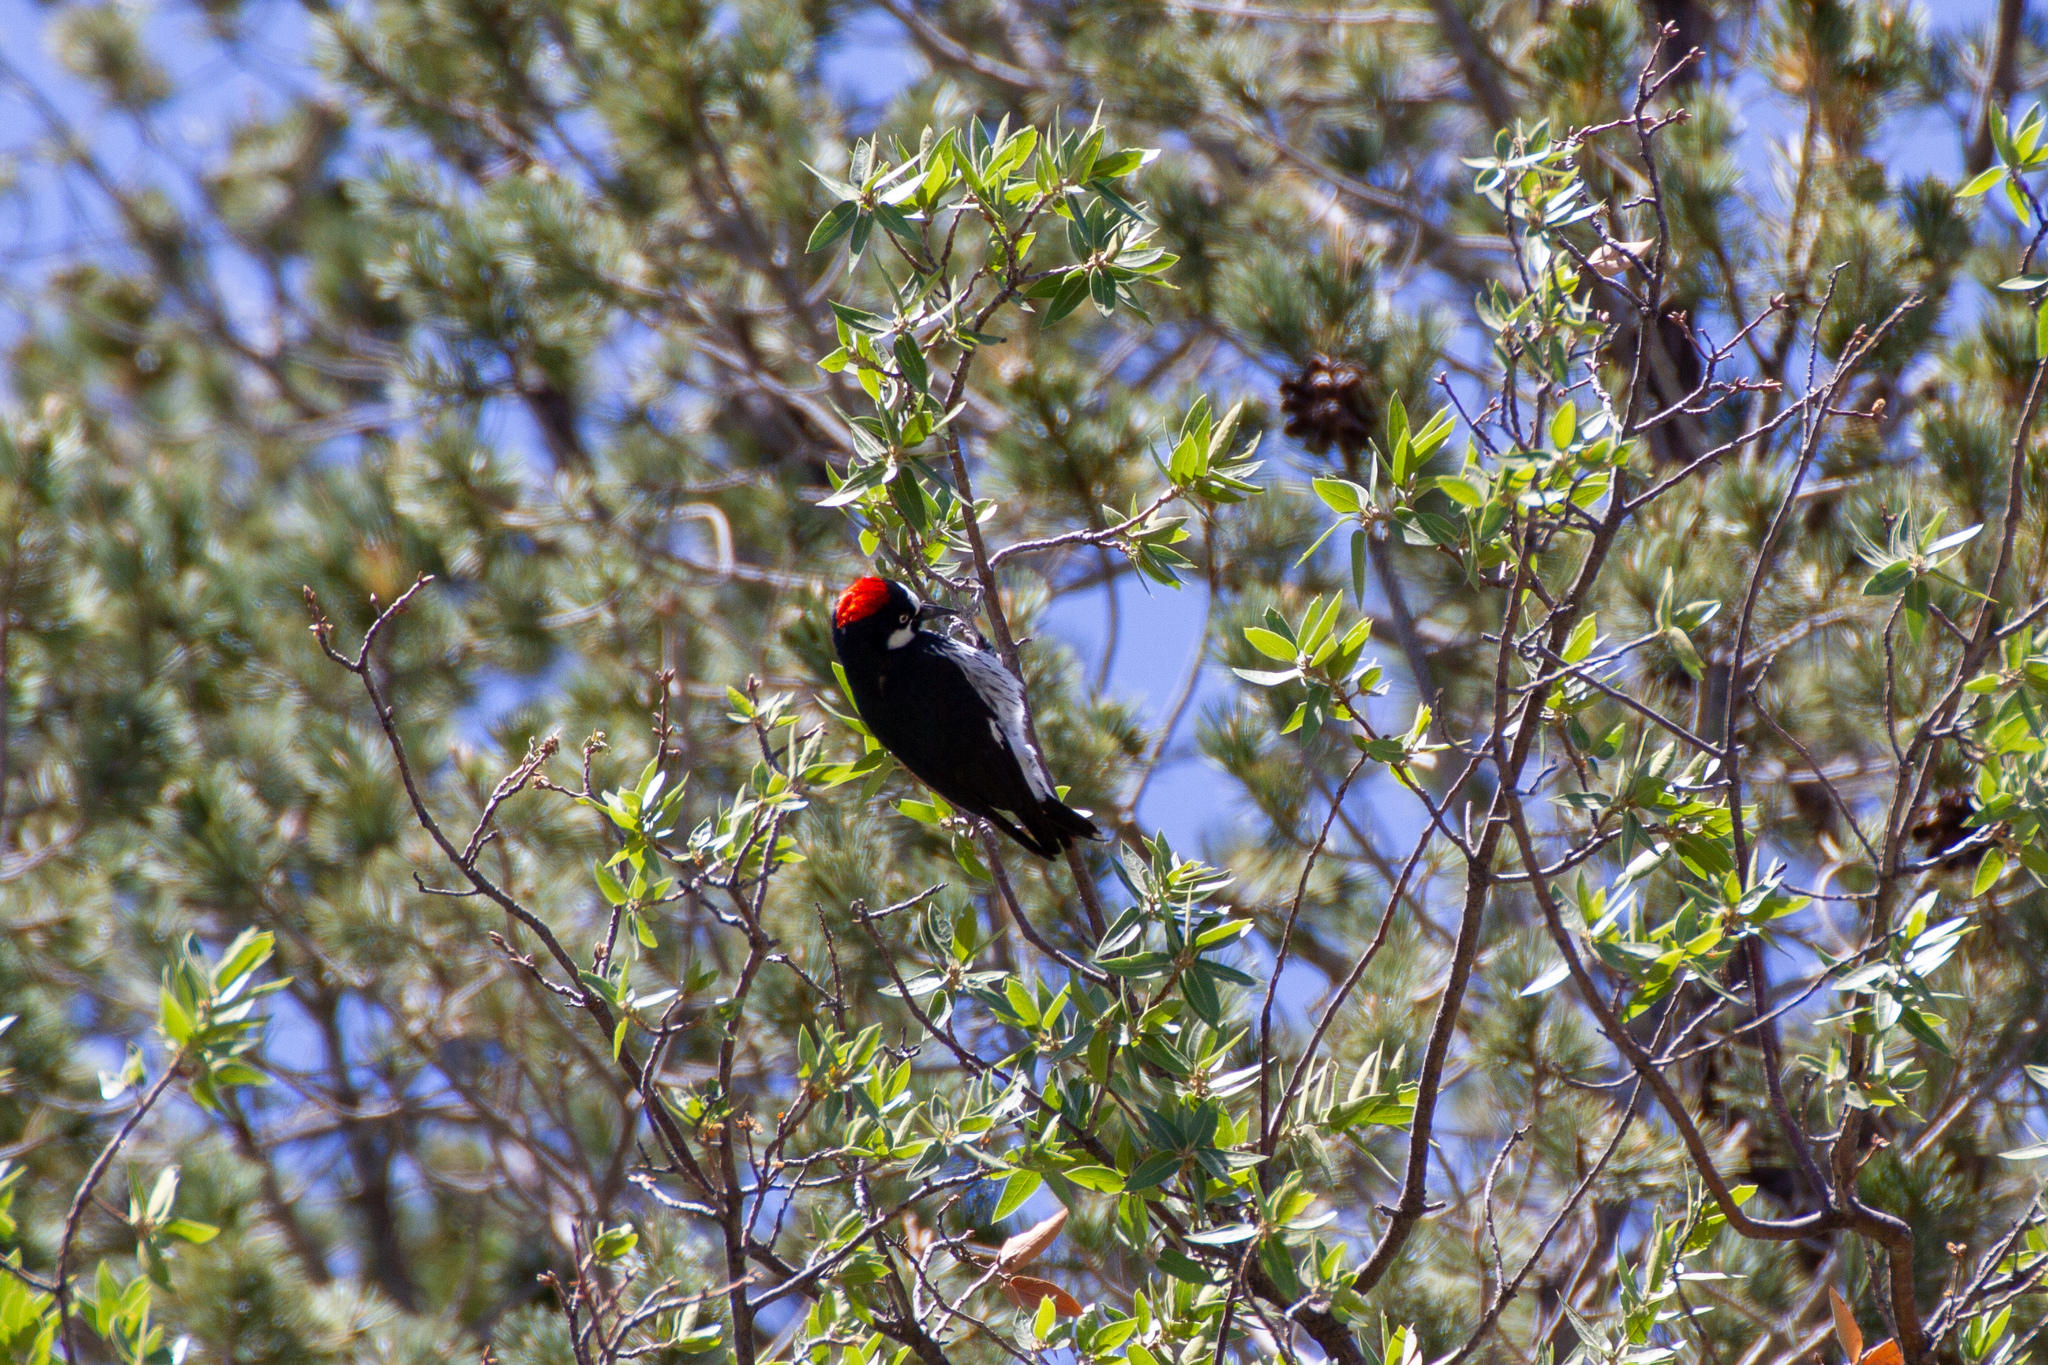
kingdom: Animalia
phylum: Chordata
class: Aves
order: Piciformes
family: Picidae
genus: Melanerpes
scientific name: Melanerpes formicivorus
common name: Acorn woodpecker
